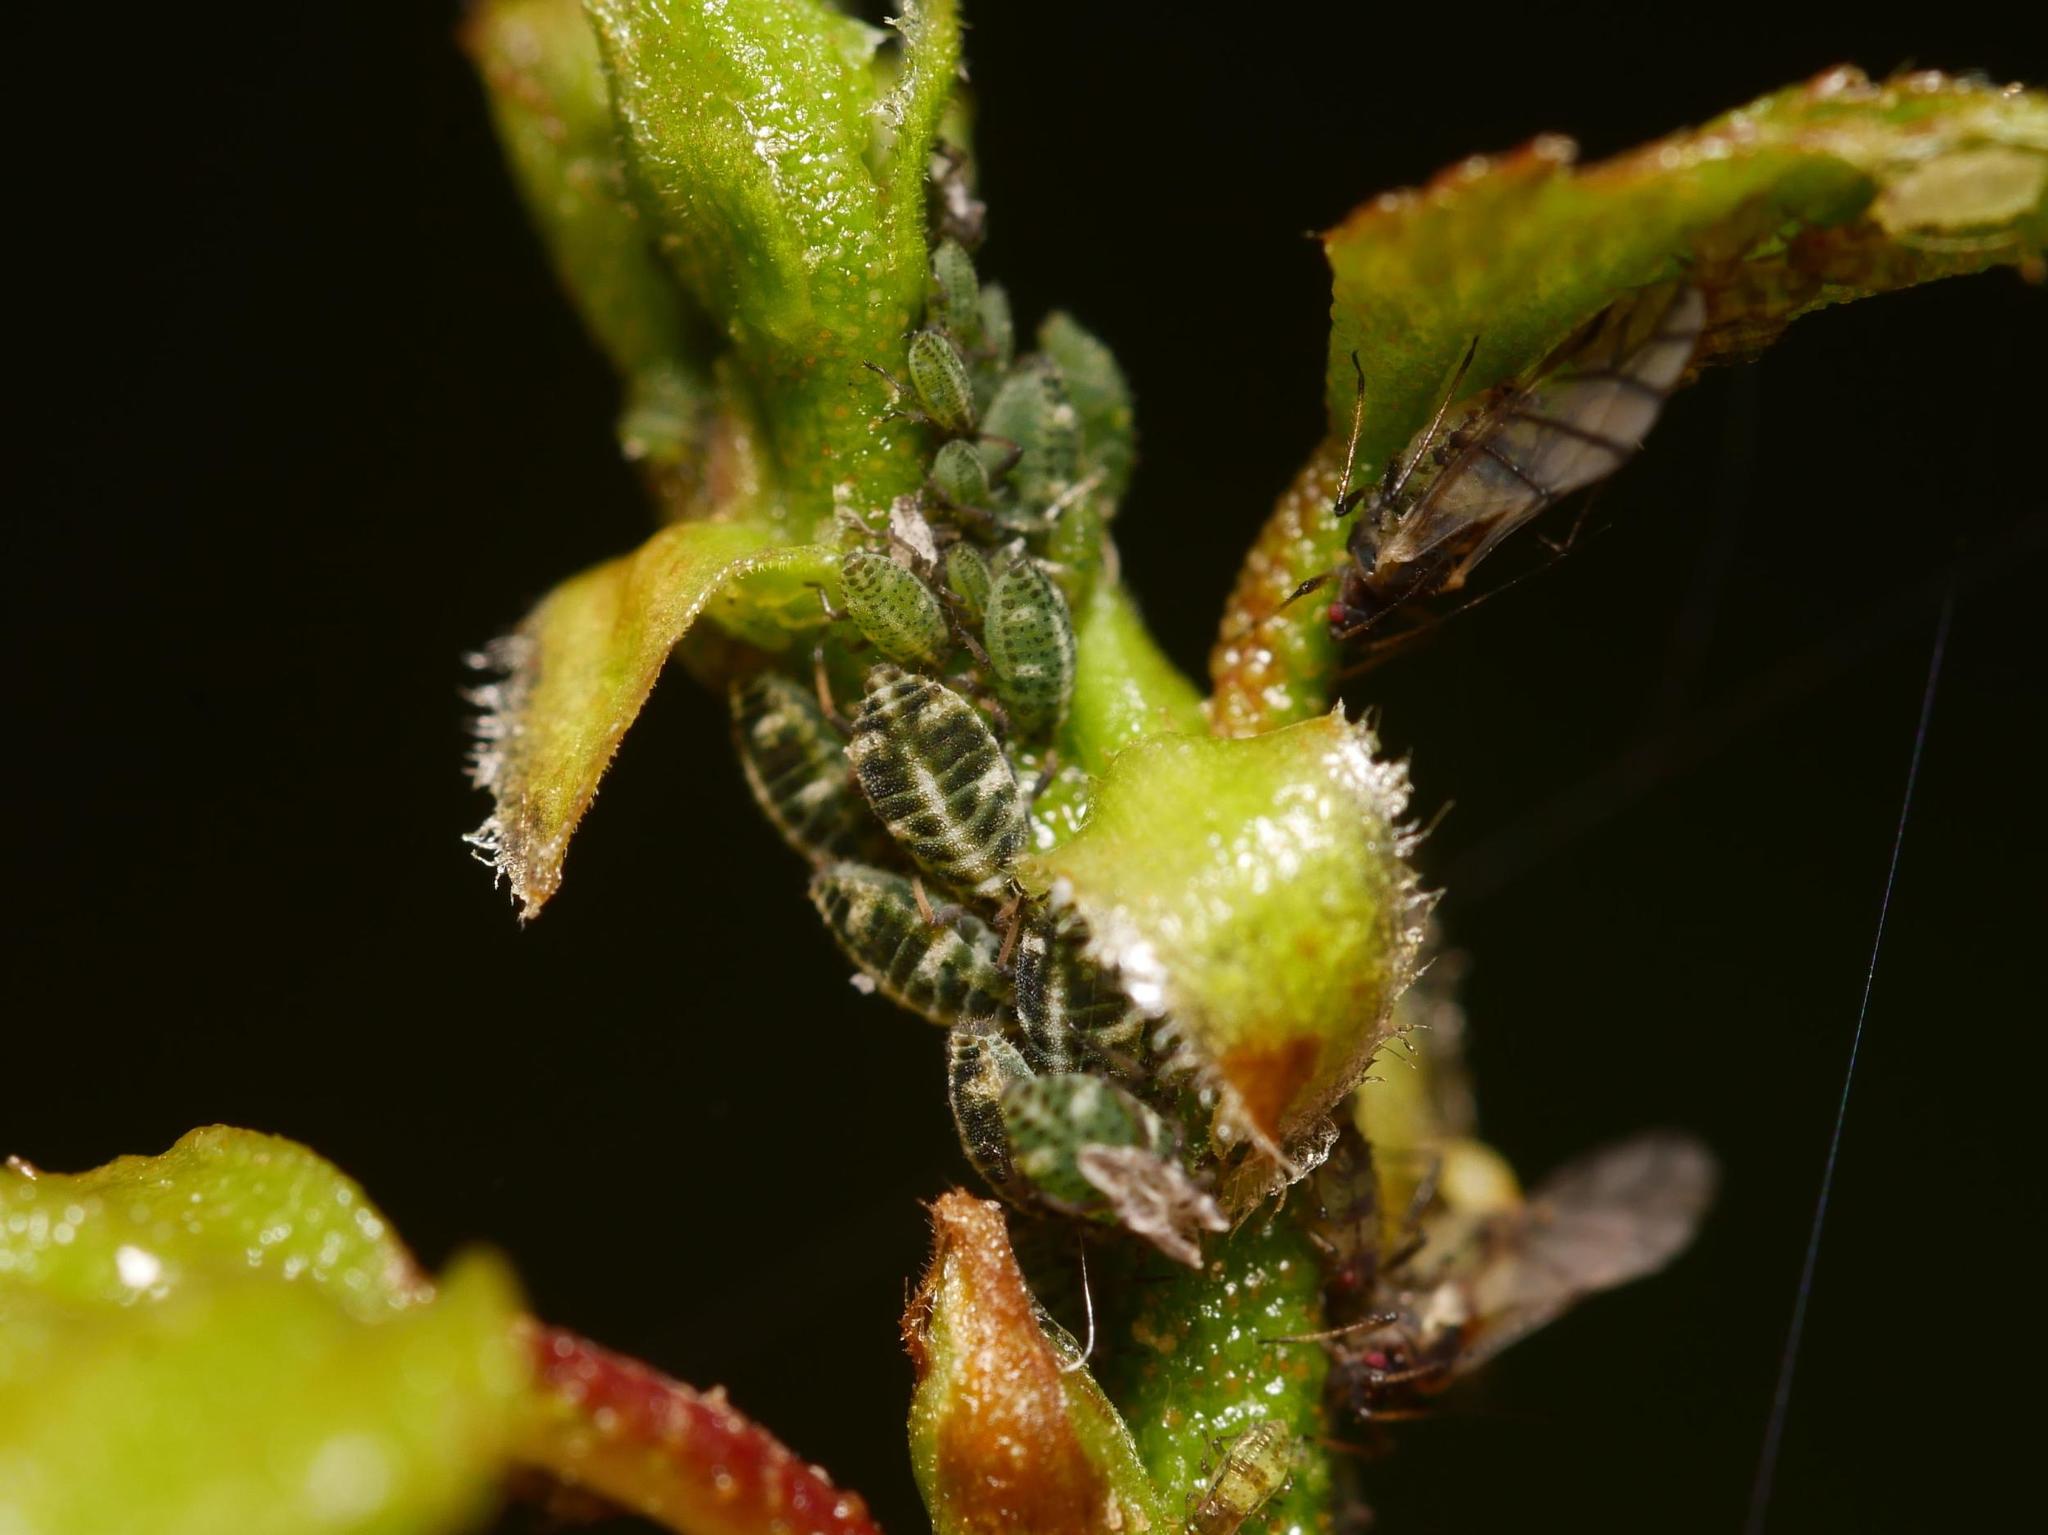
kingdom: Animalia
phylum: Arthropoda
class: Insecta
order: Hemiptera
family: Aphididae
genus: Glyphina
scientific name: Glyphina betulae
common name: Aphid
